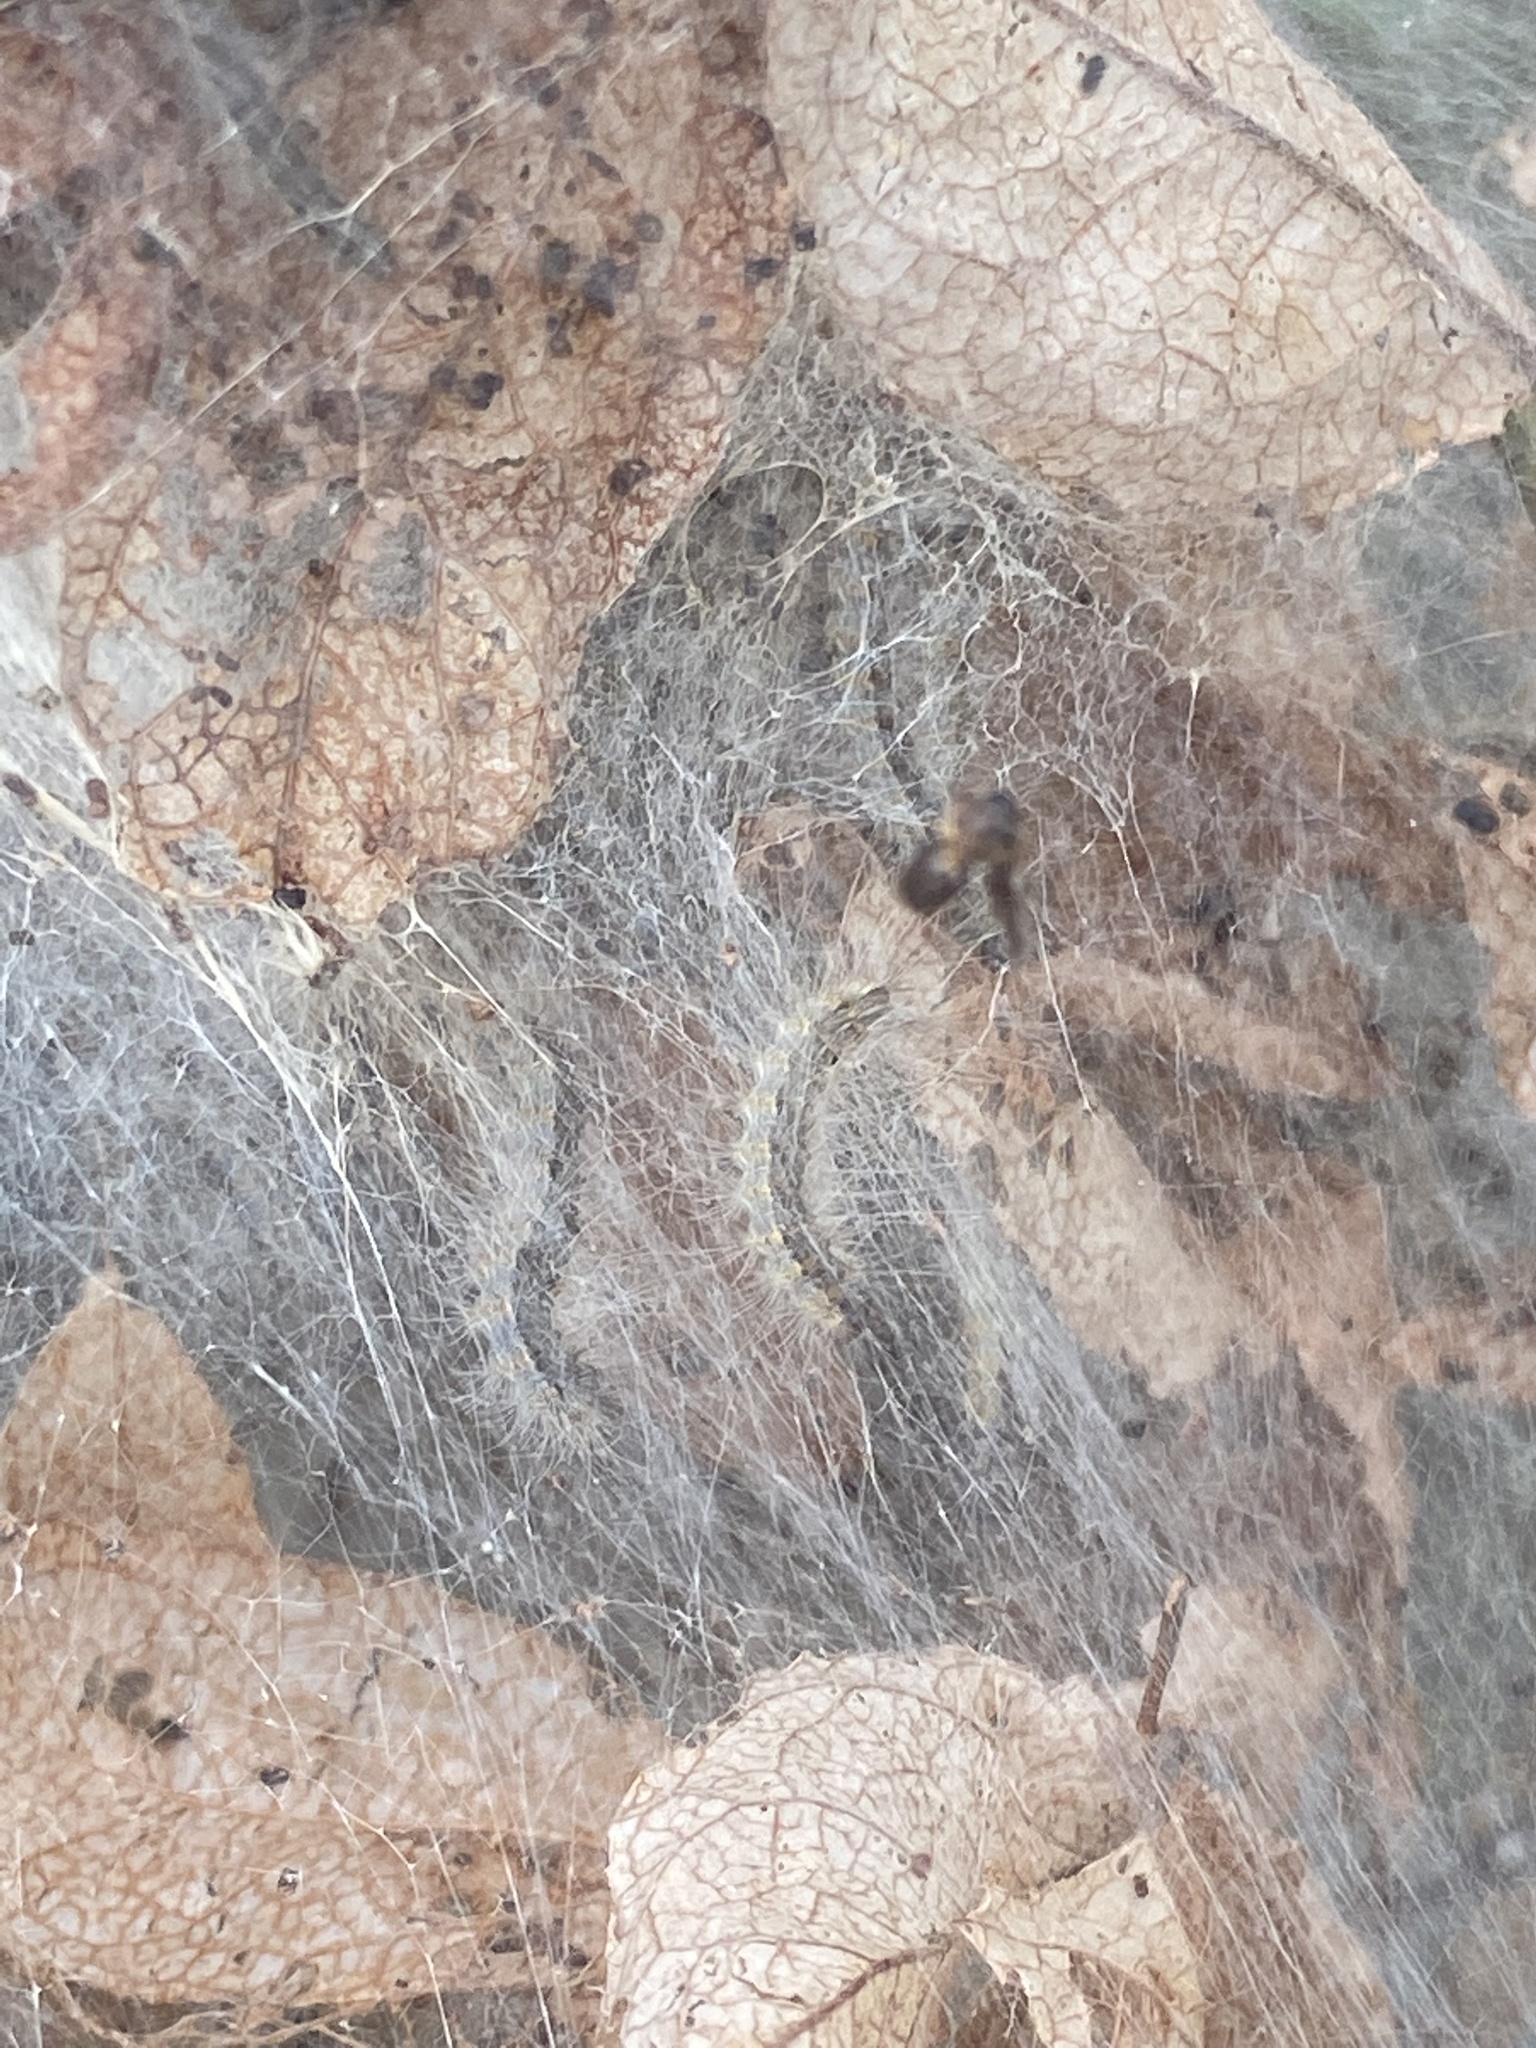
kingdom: Animalia
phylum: Arthropoda
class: Insecta
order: Lepidoptera
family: Erebidae
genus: Hyphantria
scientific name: Hyphantria cunea
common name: American white moth
